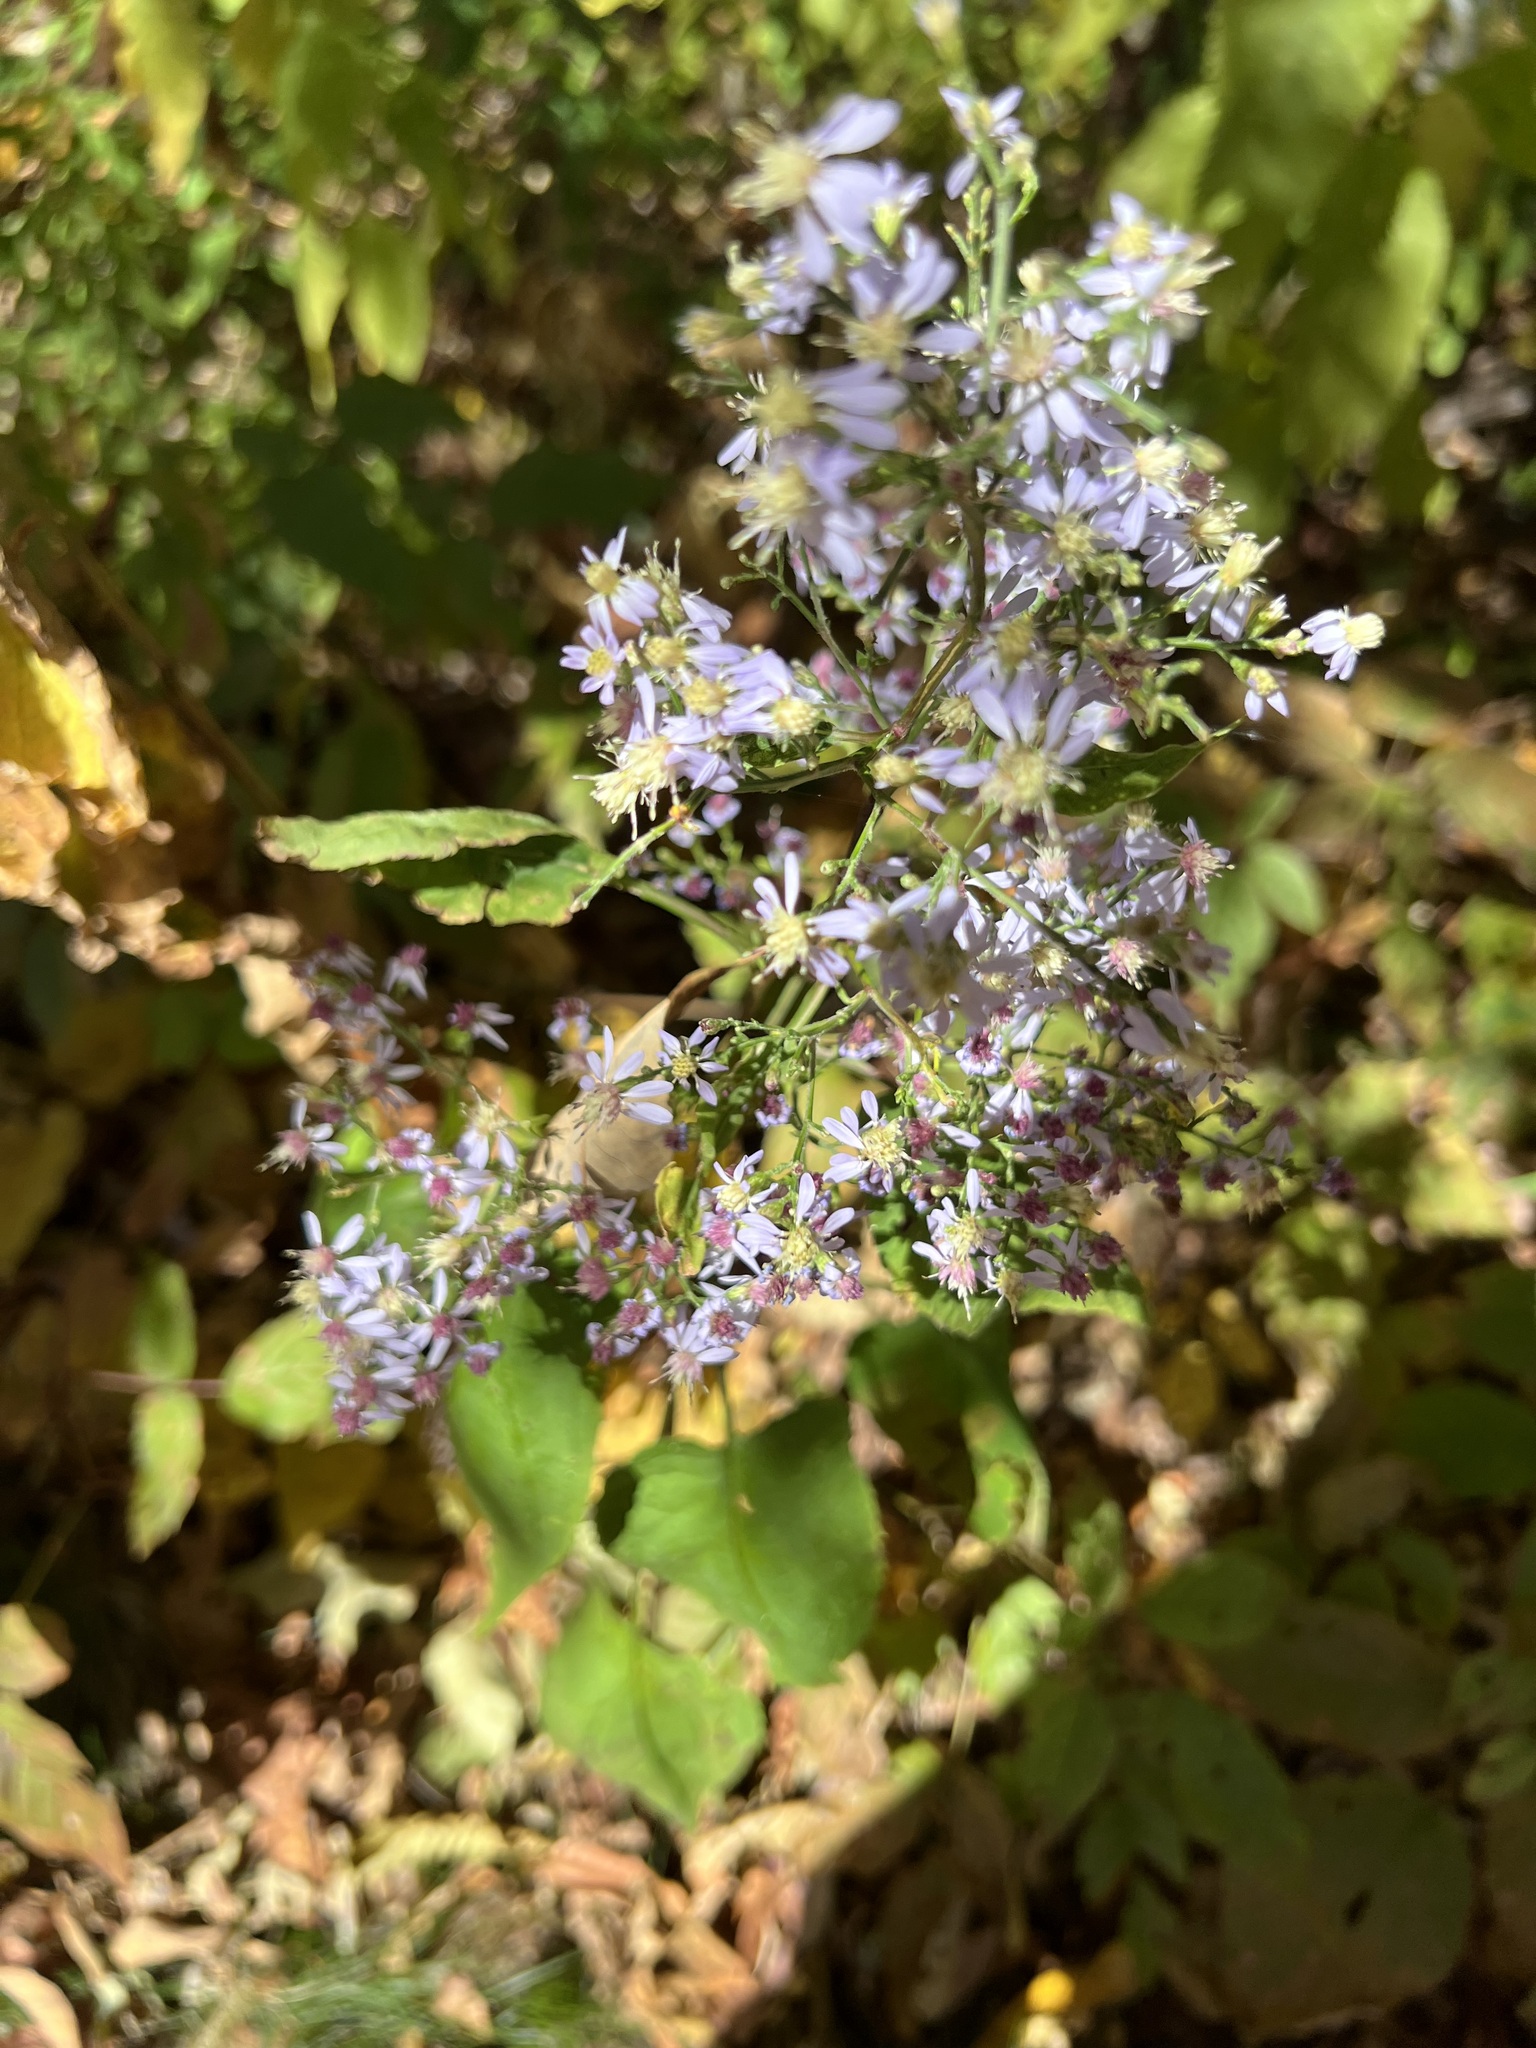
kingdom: Plantae
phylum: Tracheophyta
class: Magnoliopsida
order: Asterales
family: Asteraceae
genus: Symphyotrichum
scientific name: Symphyotrichum cordifolium
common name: Beeweed
